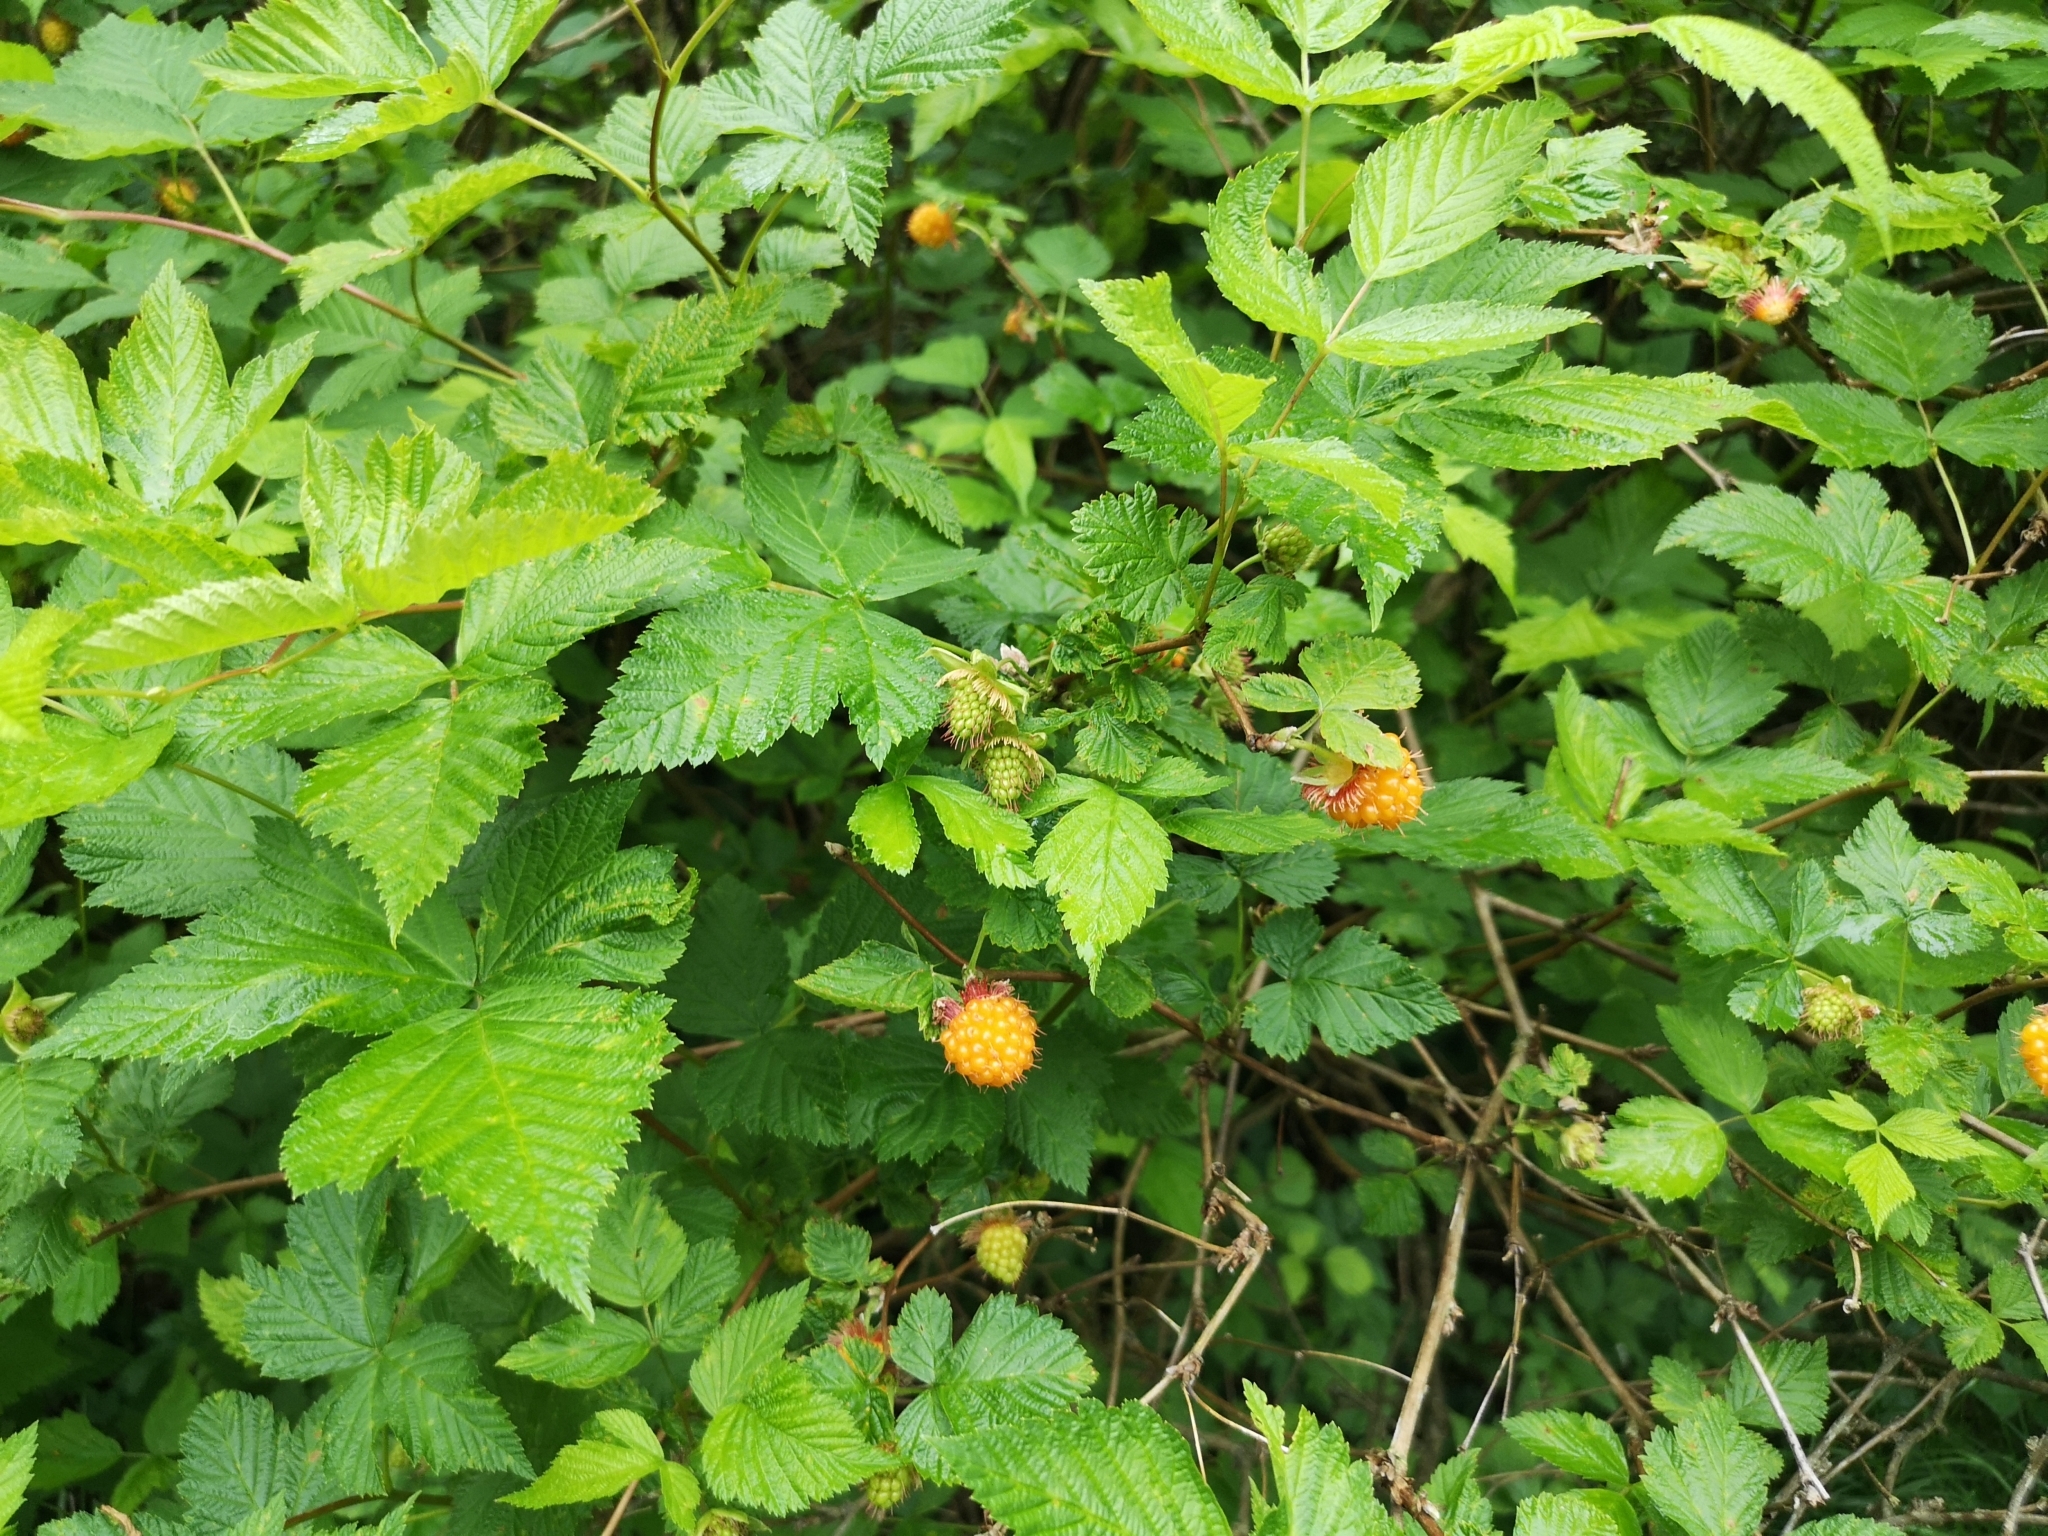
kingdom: Plantae
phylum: Tracheophyta
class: Magnoliopsida
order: Rosales
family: Rosaceae
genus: Rubus
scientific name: Rubus spectabilis
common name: Salmonberry
